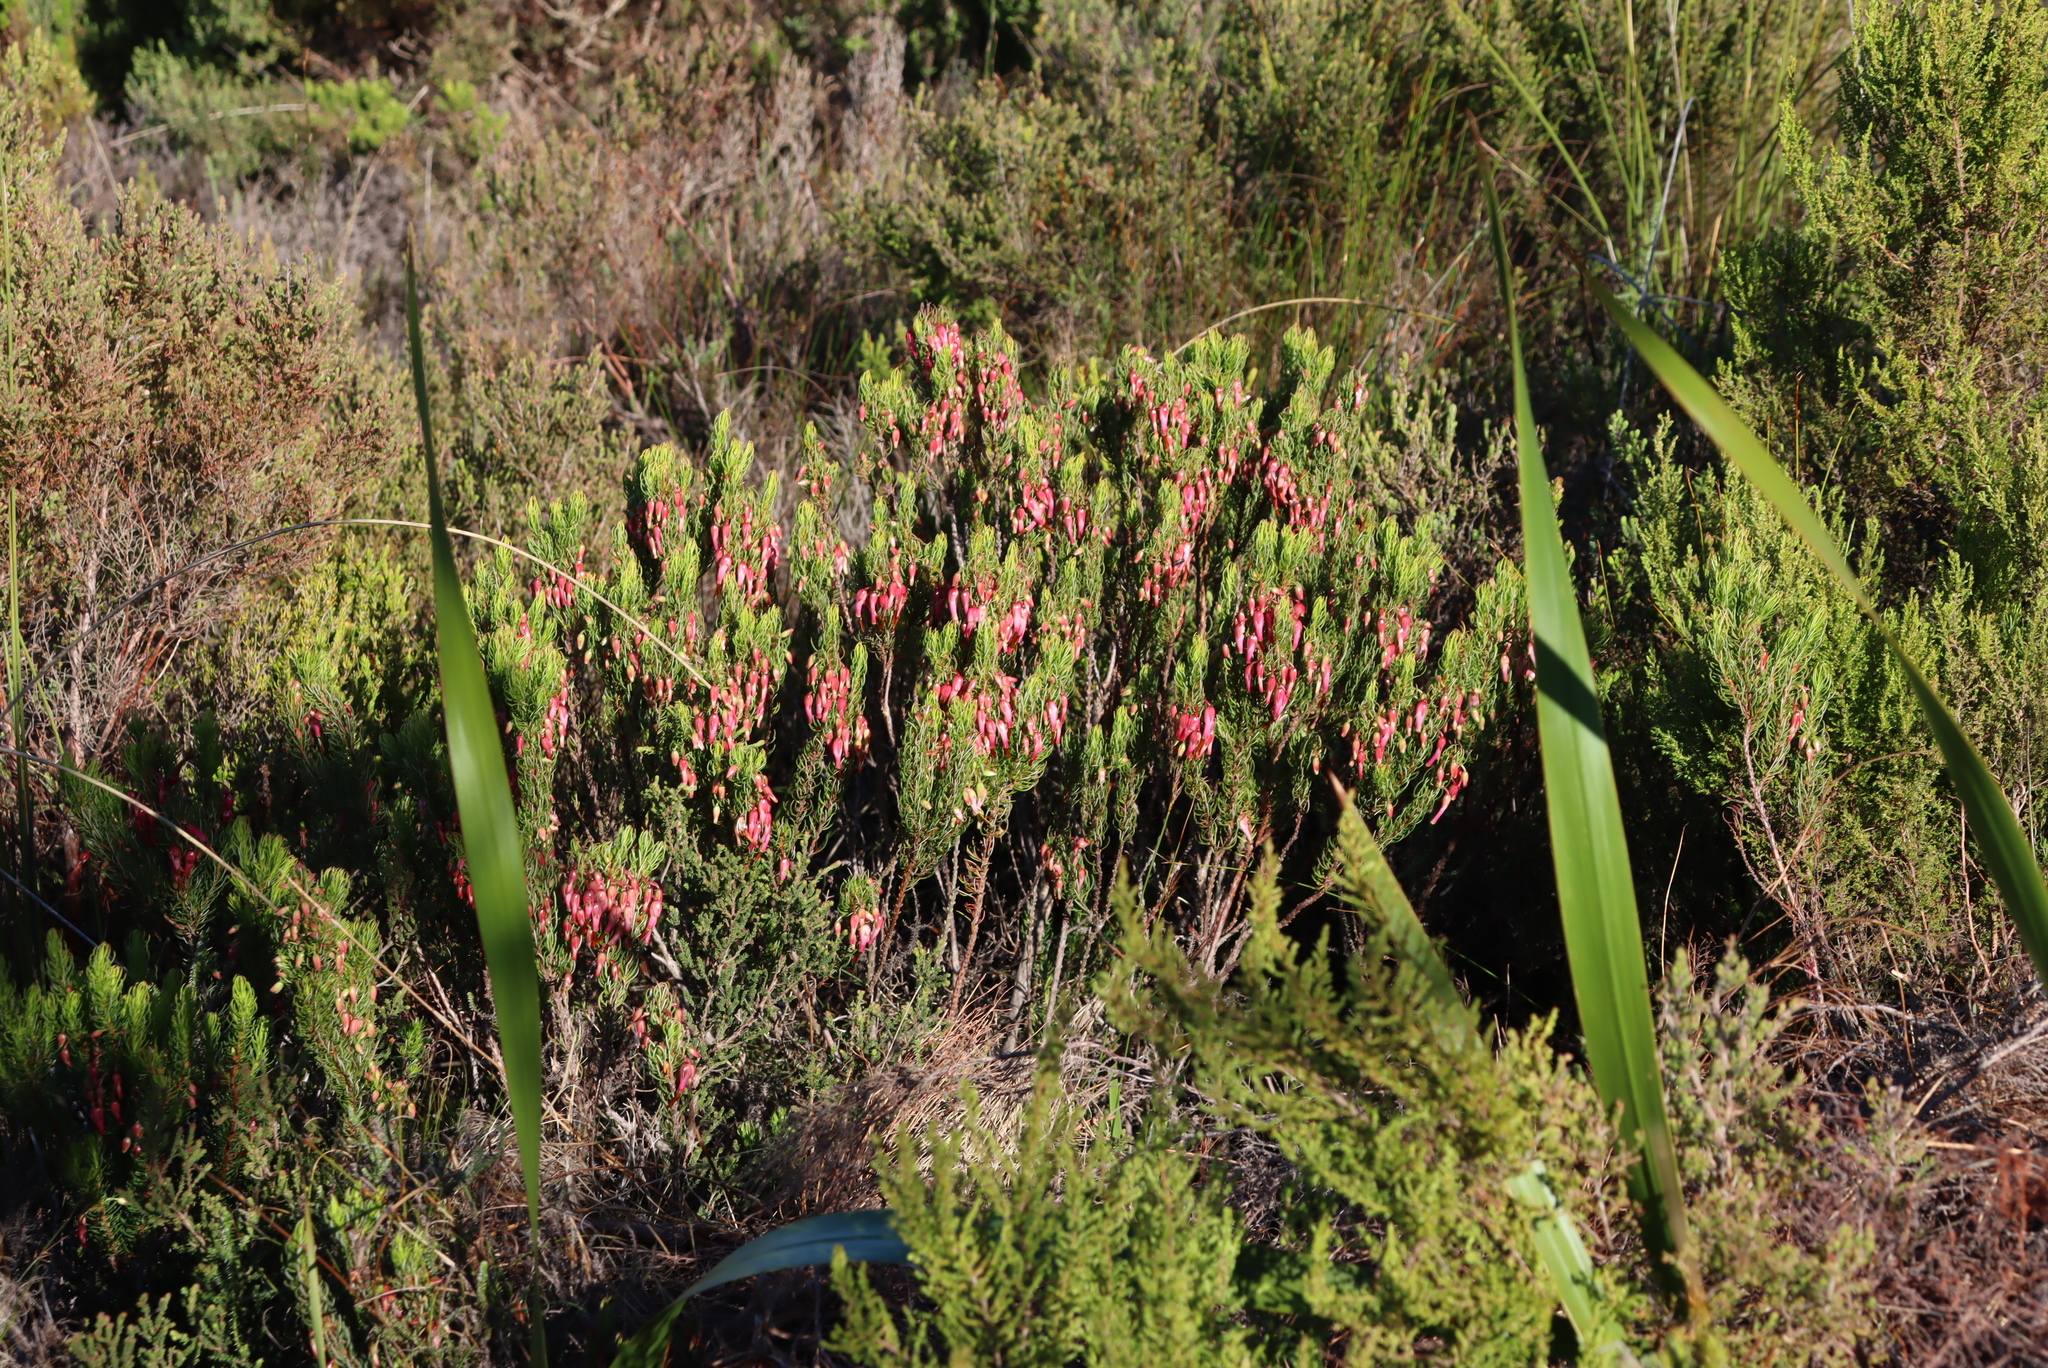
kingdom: Plantae
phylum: Tracheophyta
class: Magnoliopsida
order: Ericales
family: Ericaceae
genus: Erica
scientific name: Erica plukenetii
